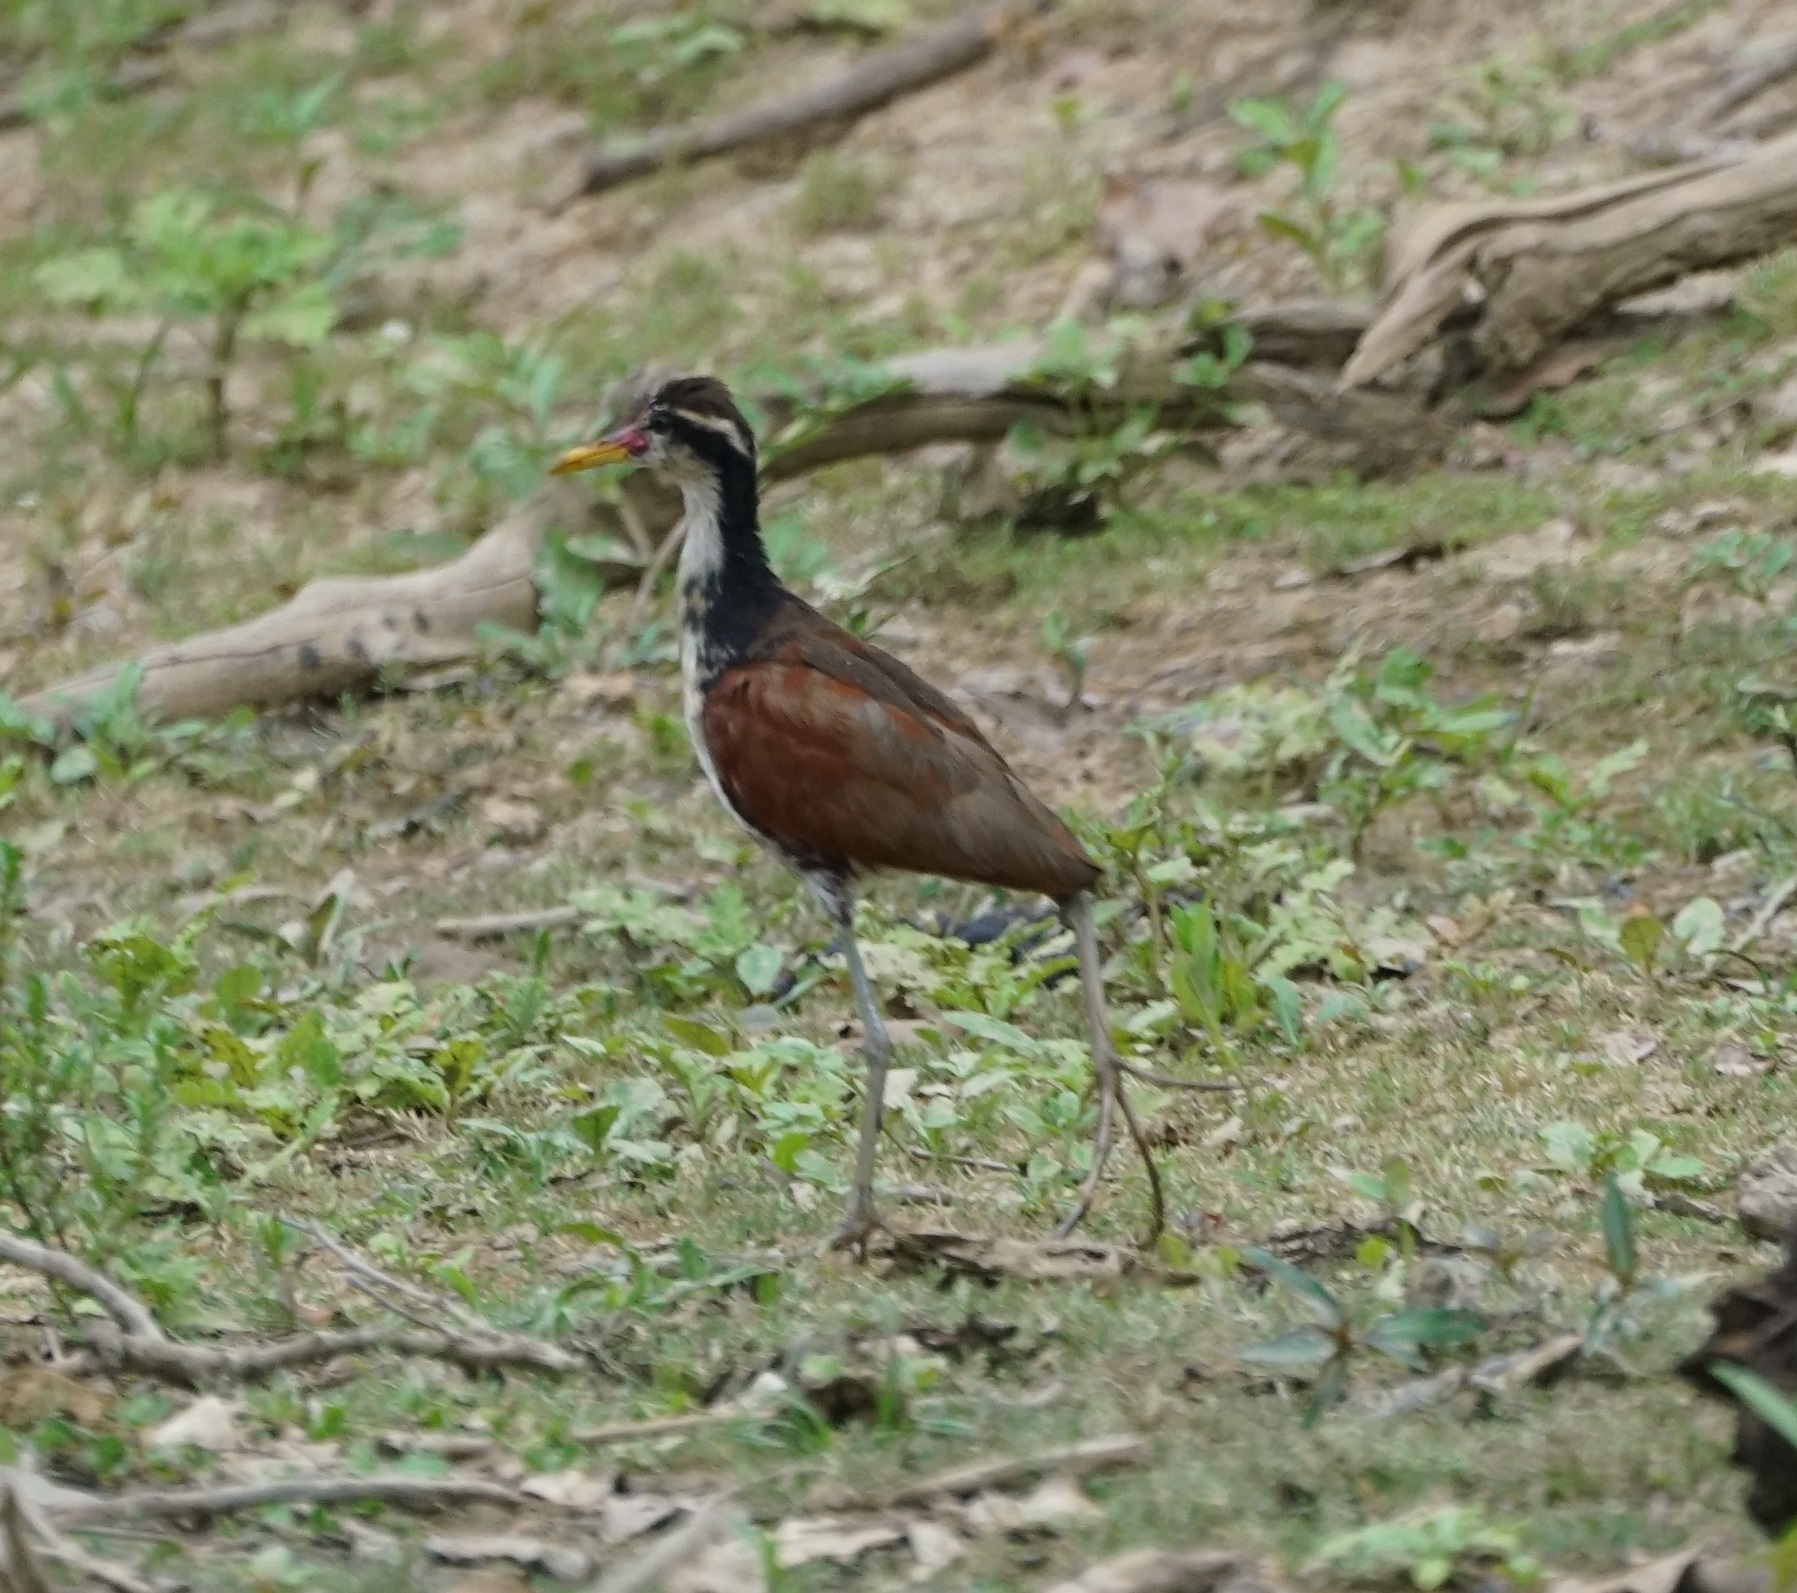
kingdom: Animalia
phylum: Chordata
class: Aves
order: Charadriiformes
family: Jacanidae
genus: Jacana
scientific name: Jacana jacana
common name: Wattled jacana
